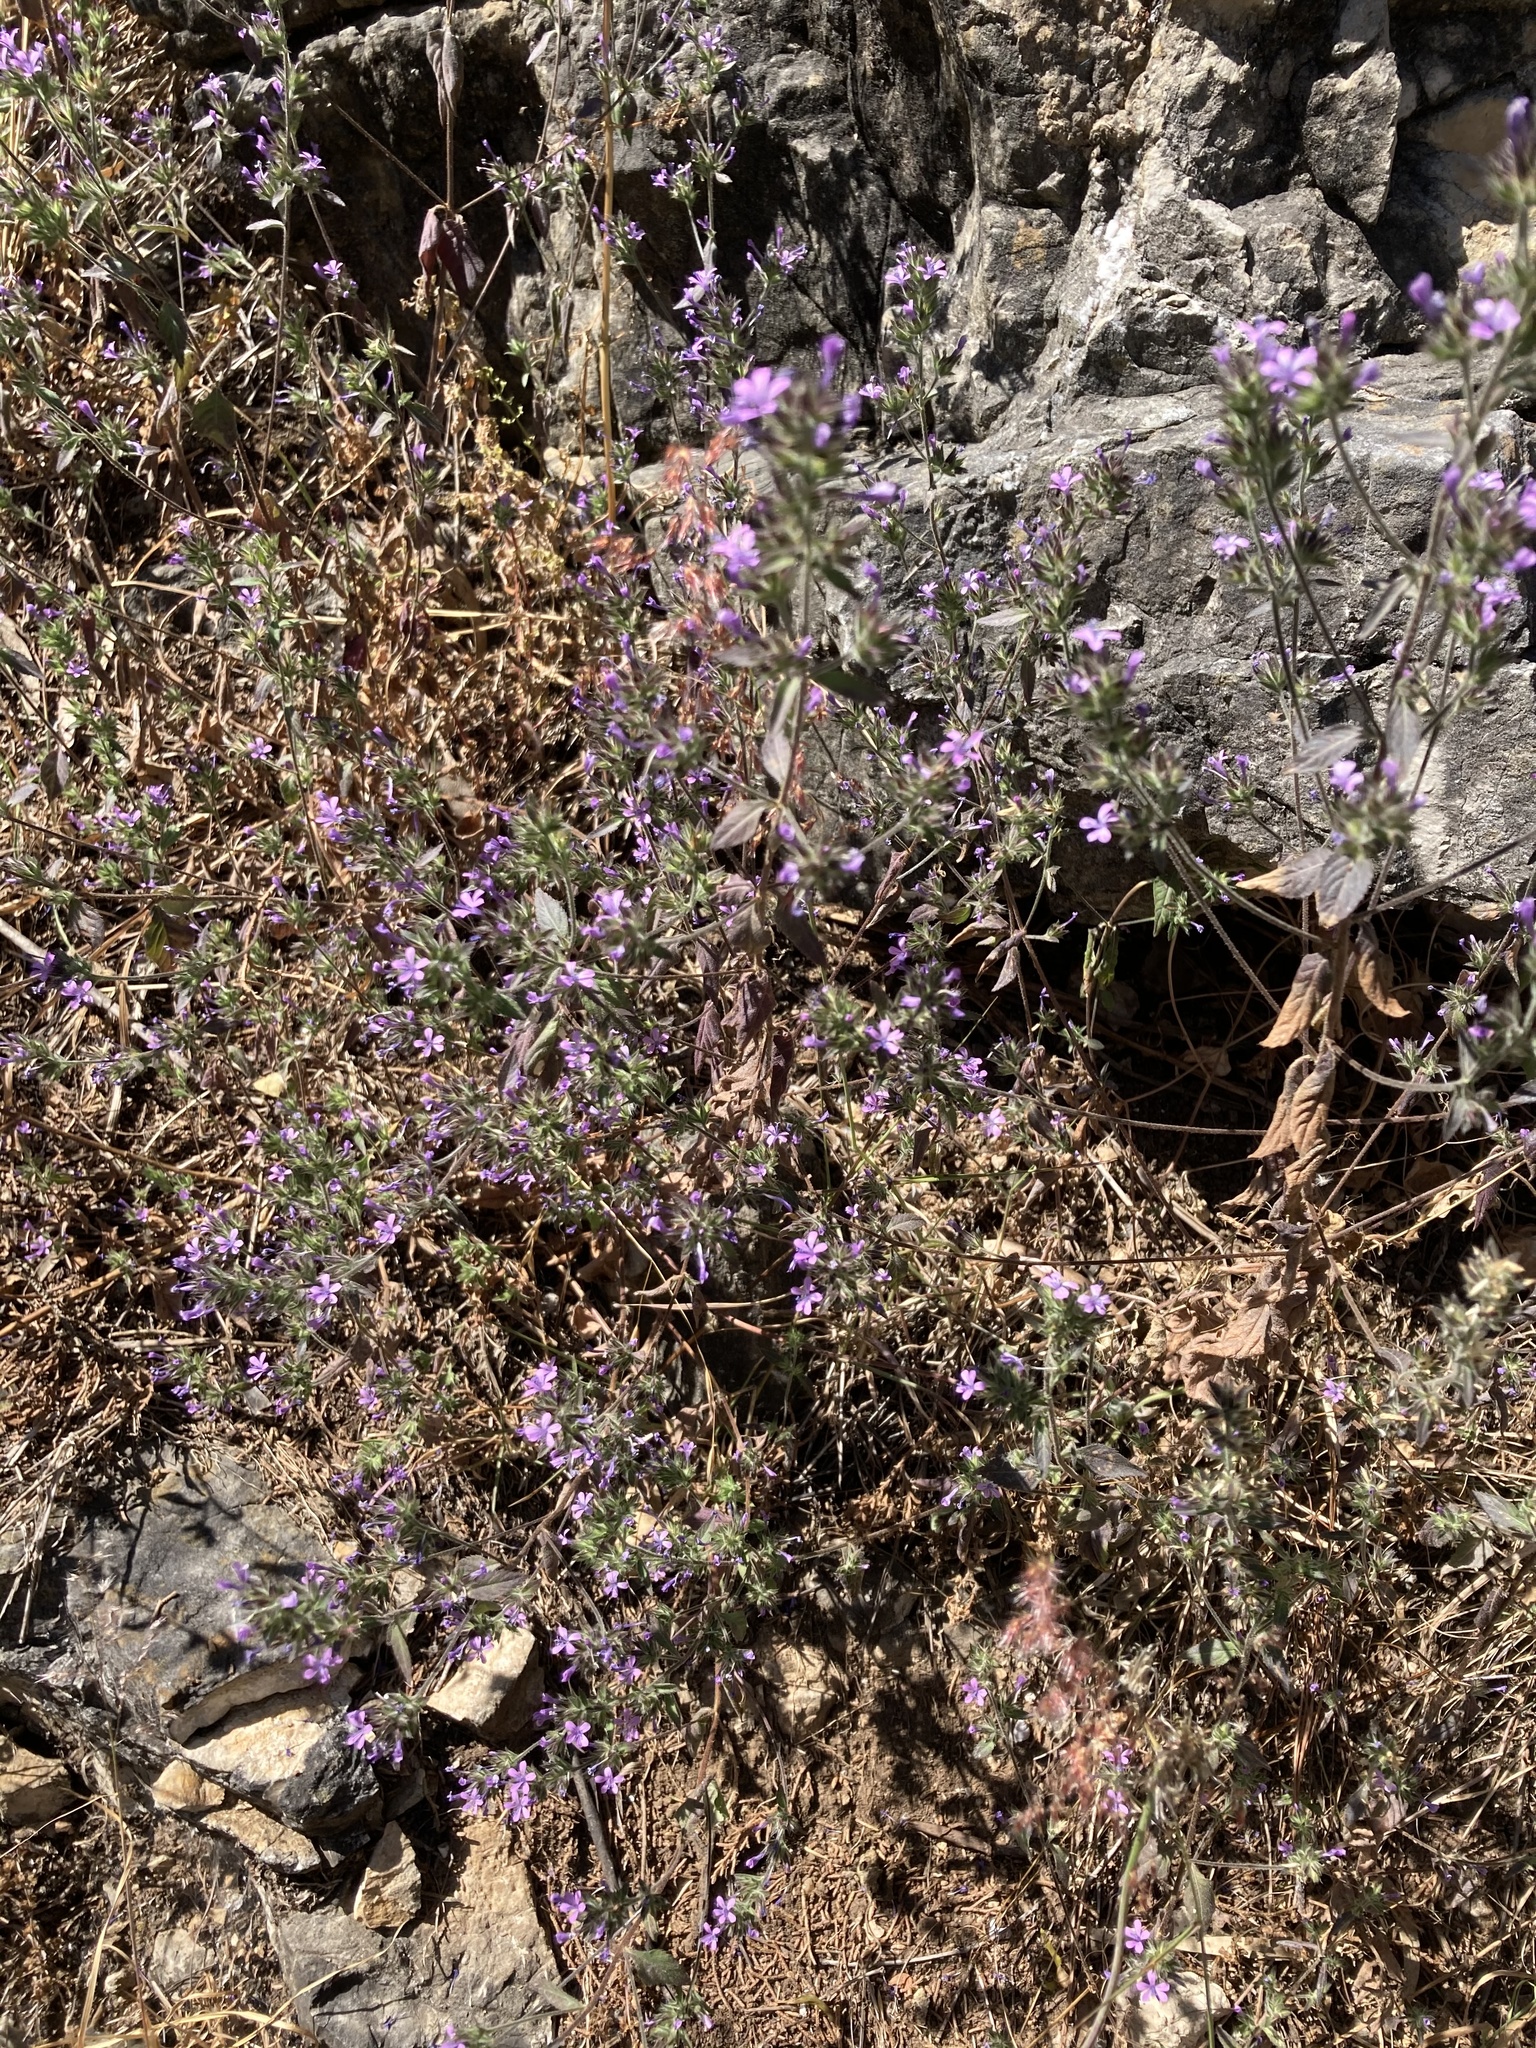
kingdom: Plantae
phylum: Tracheophyta
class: Magnoliopsida
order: Ericales
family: Polemoniaceae
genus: Loeselia
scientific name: Loeselia glandulosa
